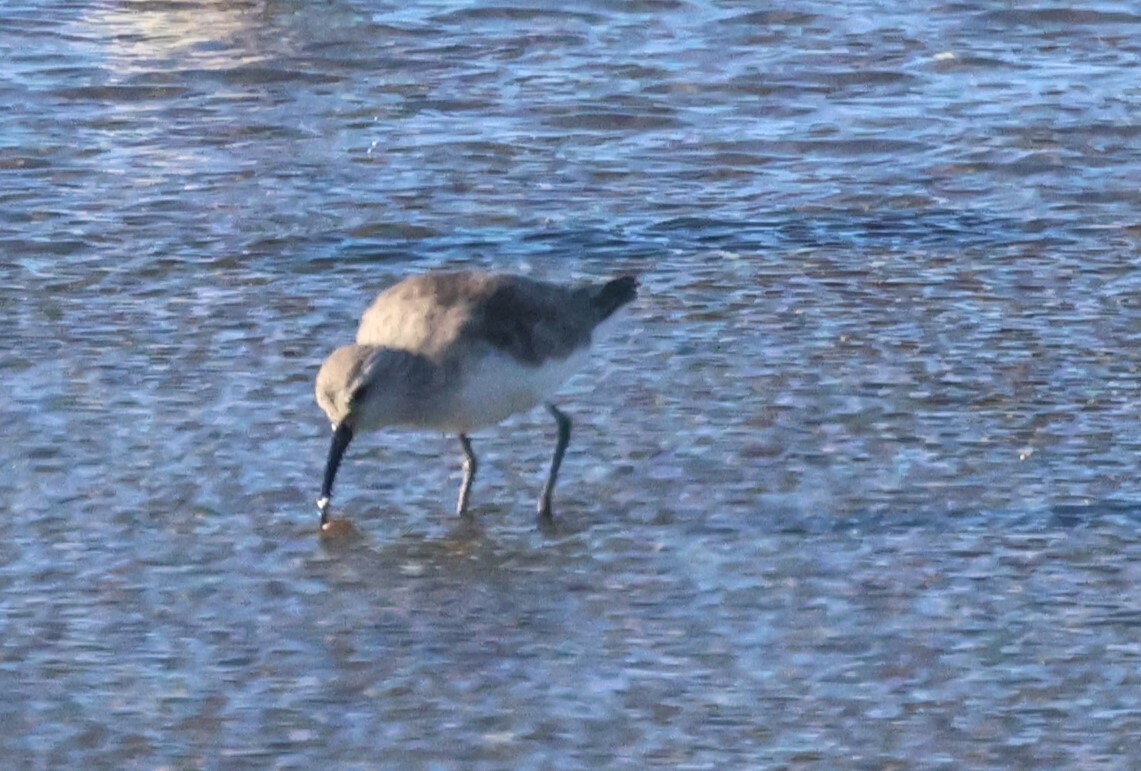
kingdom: Animalia
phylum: Chordata
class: Aves
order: Charadriiformes
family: Scolopacidae
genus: Calidris
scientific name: Calidris ferruginea
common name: Curlew sandpiper
